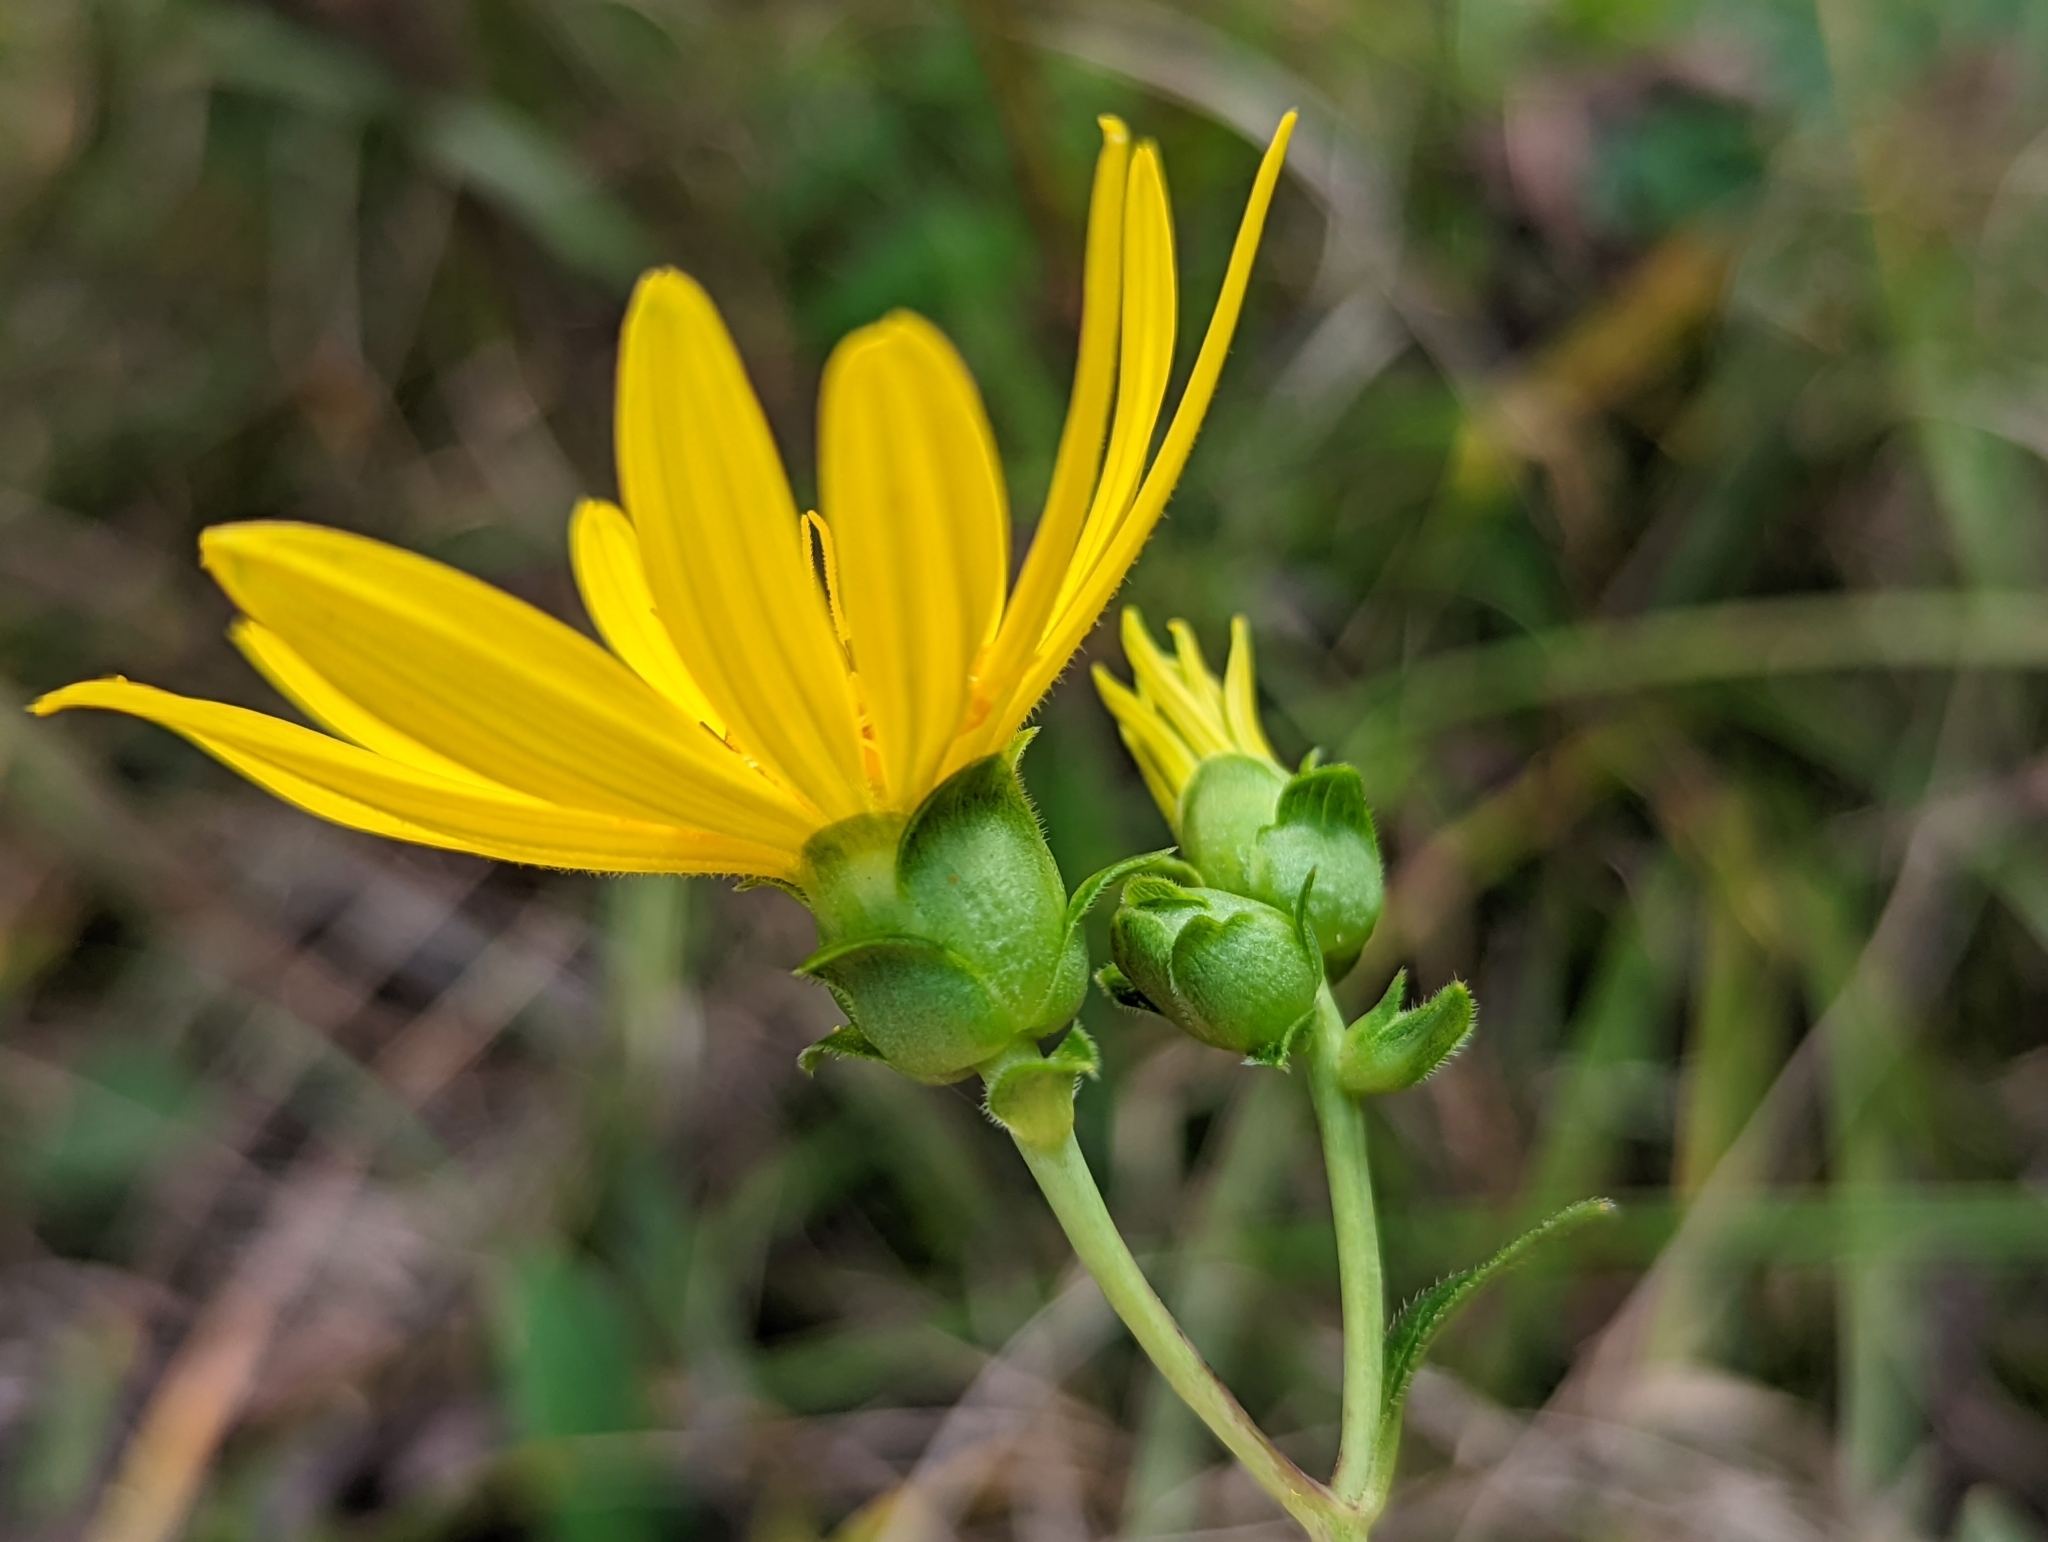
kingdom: Plantae
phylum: Tracheophyta
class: Magnoliopsida
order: Asterales
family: Asteraceae
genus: Silphium
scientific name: Silphium asteriscus
